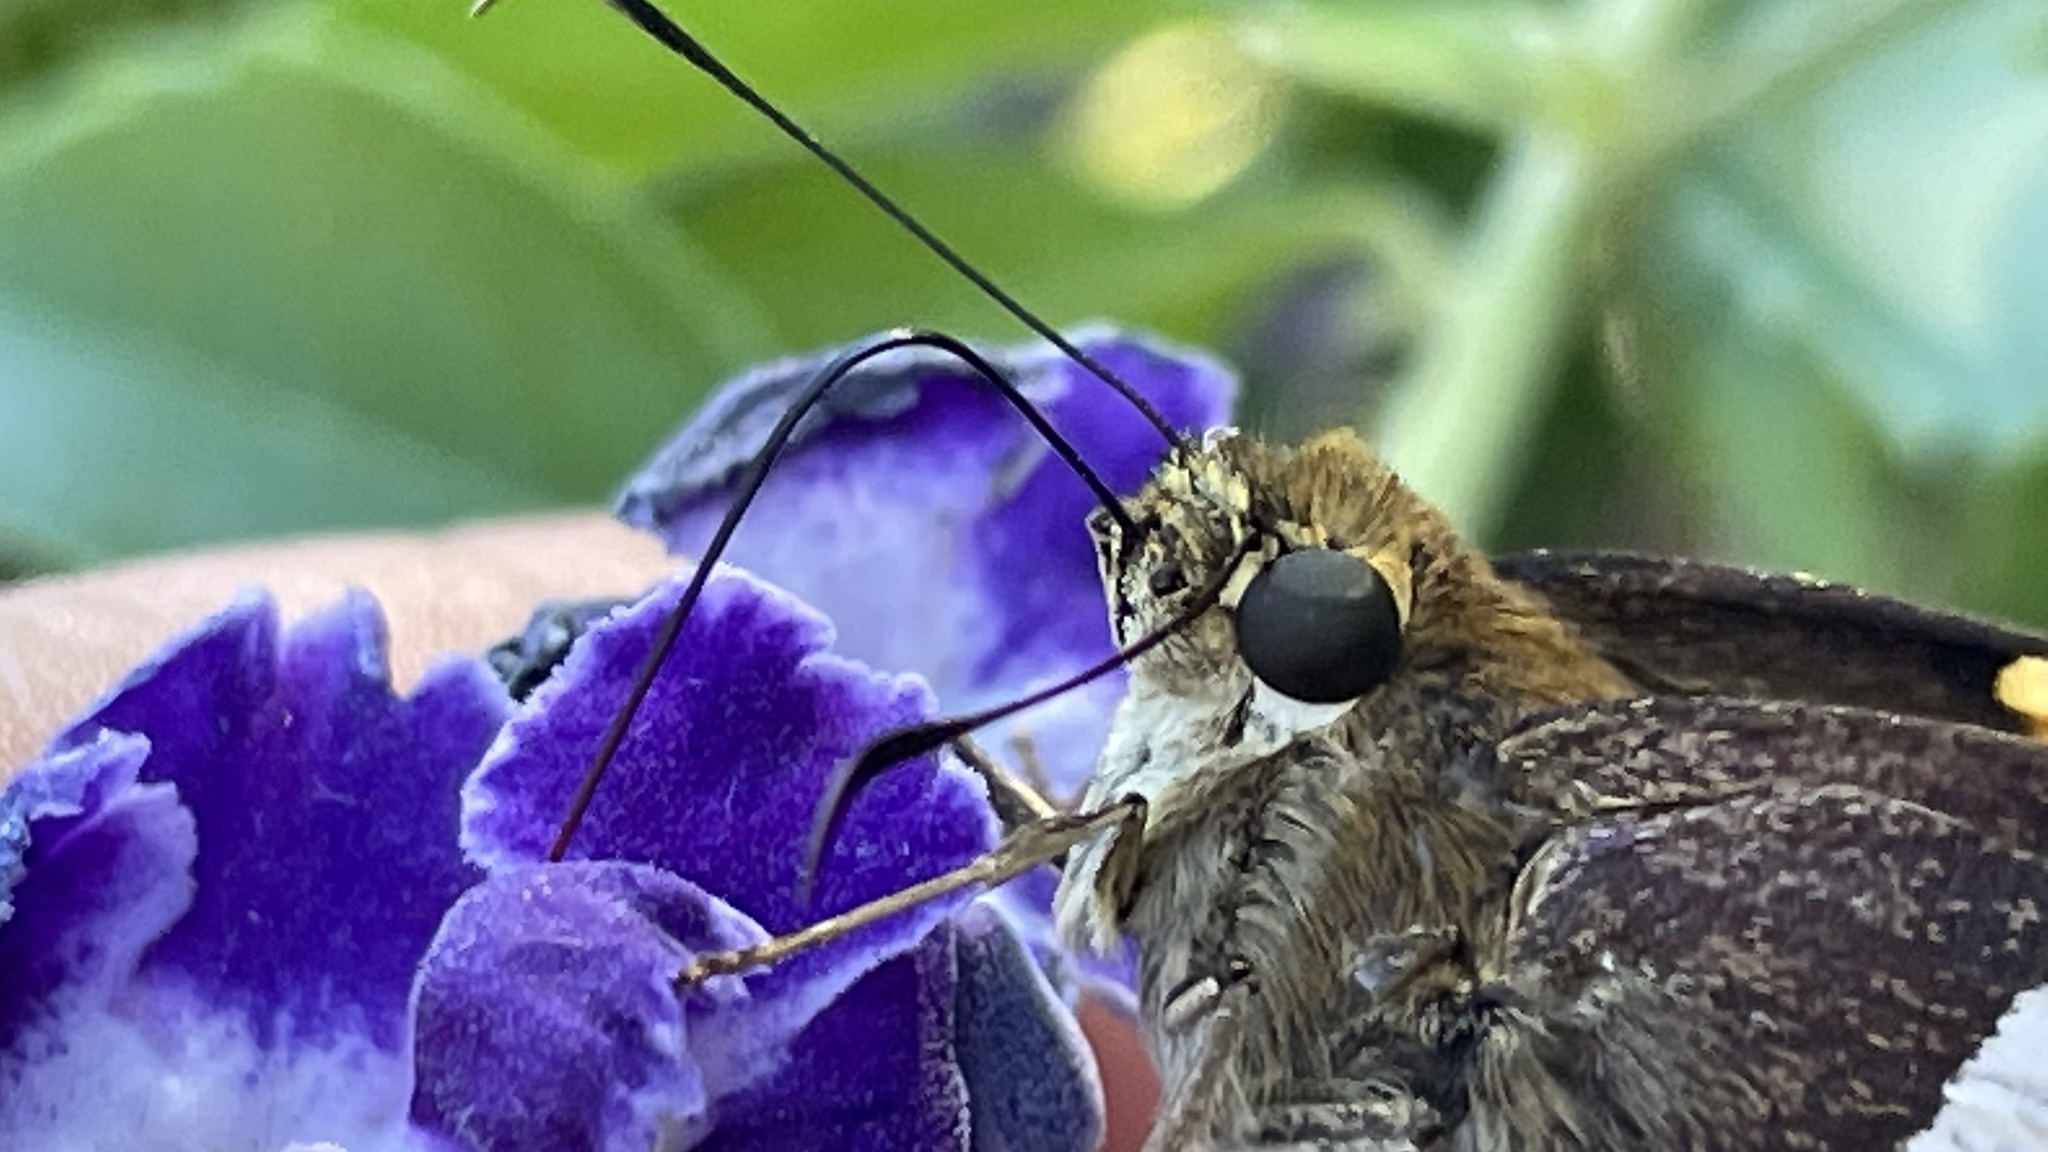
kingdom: Animalia
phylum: Arthropoda
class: Insecta
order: Lepidoptera
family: Hesperiidae
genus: Aguna
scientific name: Aguna asander
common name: Gold-spotted aguna
